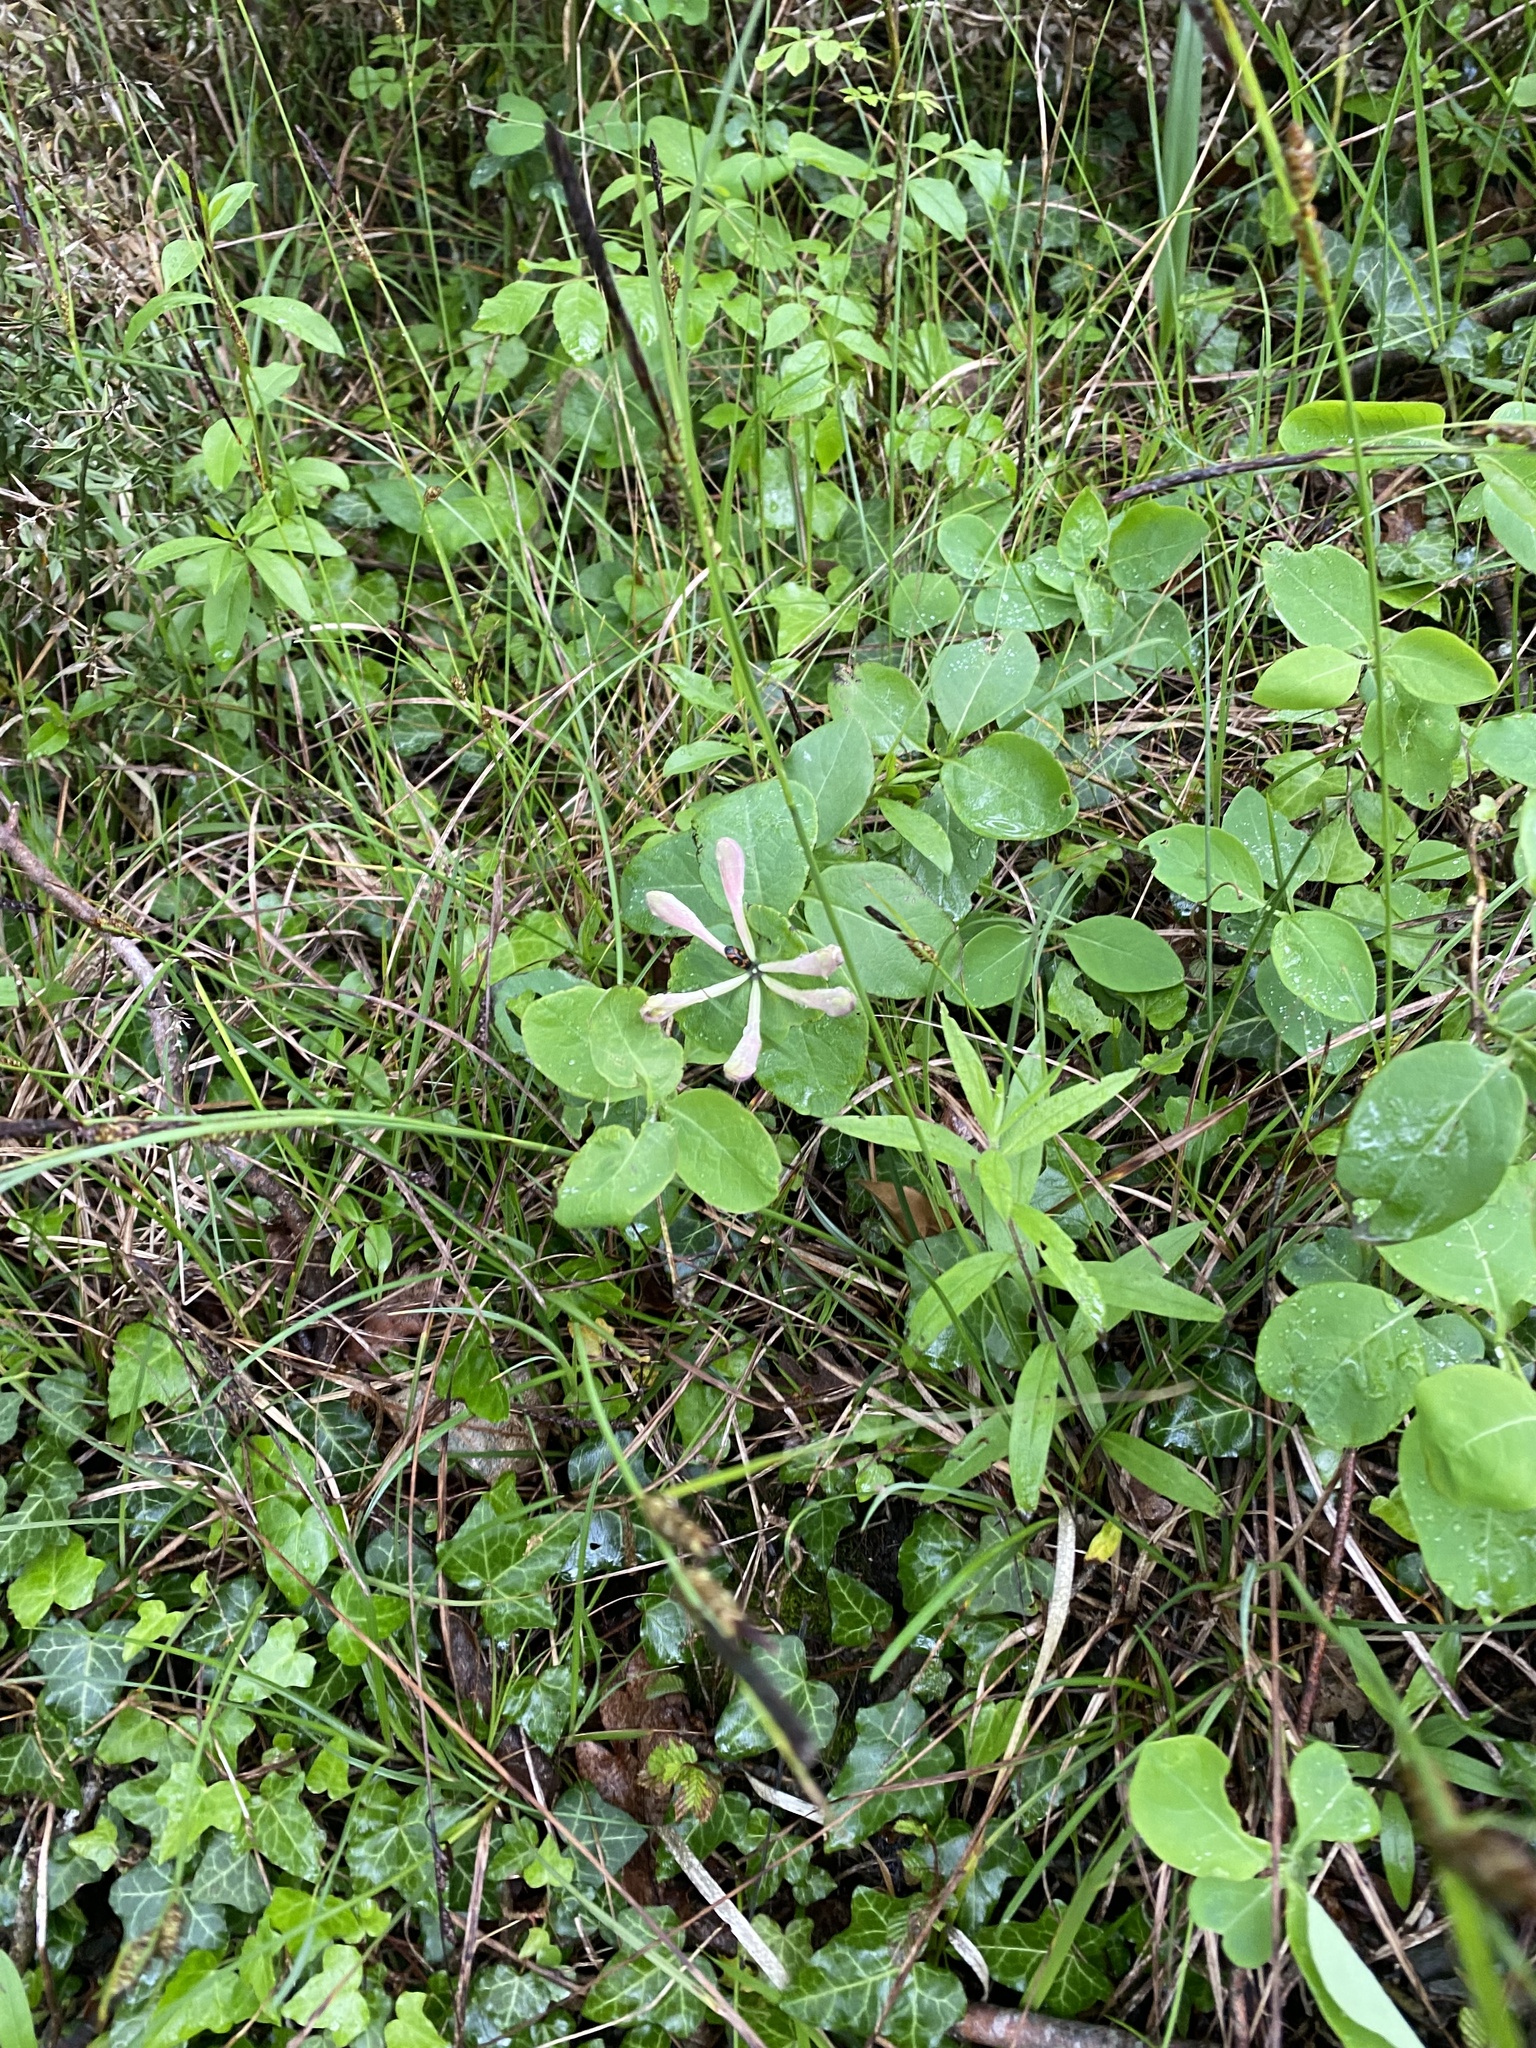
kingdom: Plantae
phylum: Tracheophyta
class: Magnoliopsida
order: Dipsacales
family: Caprifoliaceae
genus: Lonicera
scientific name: Lonicera caprifolium
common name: Perfoliate honeysuckle
